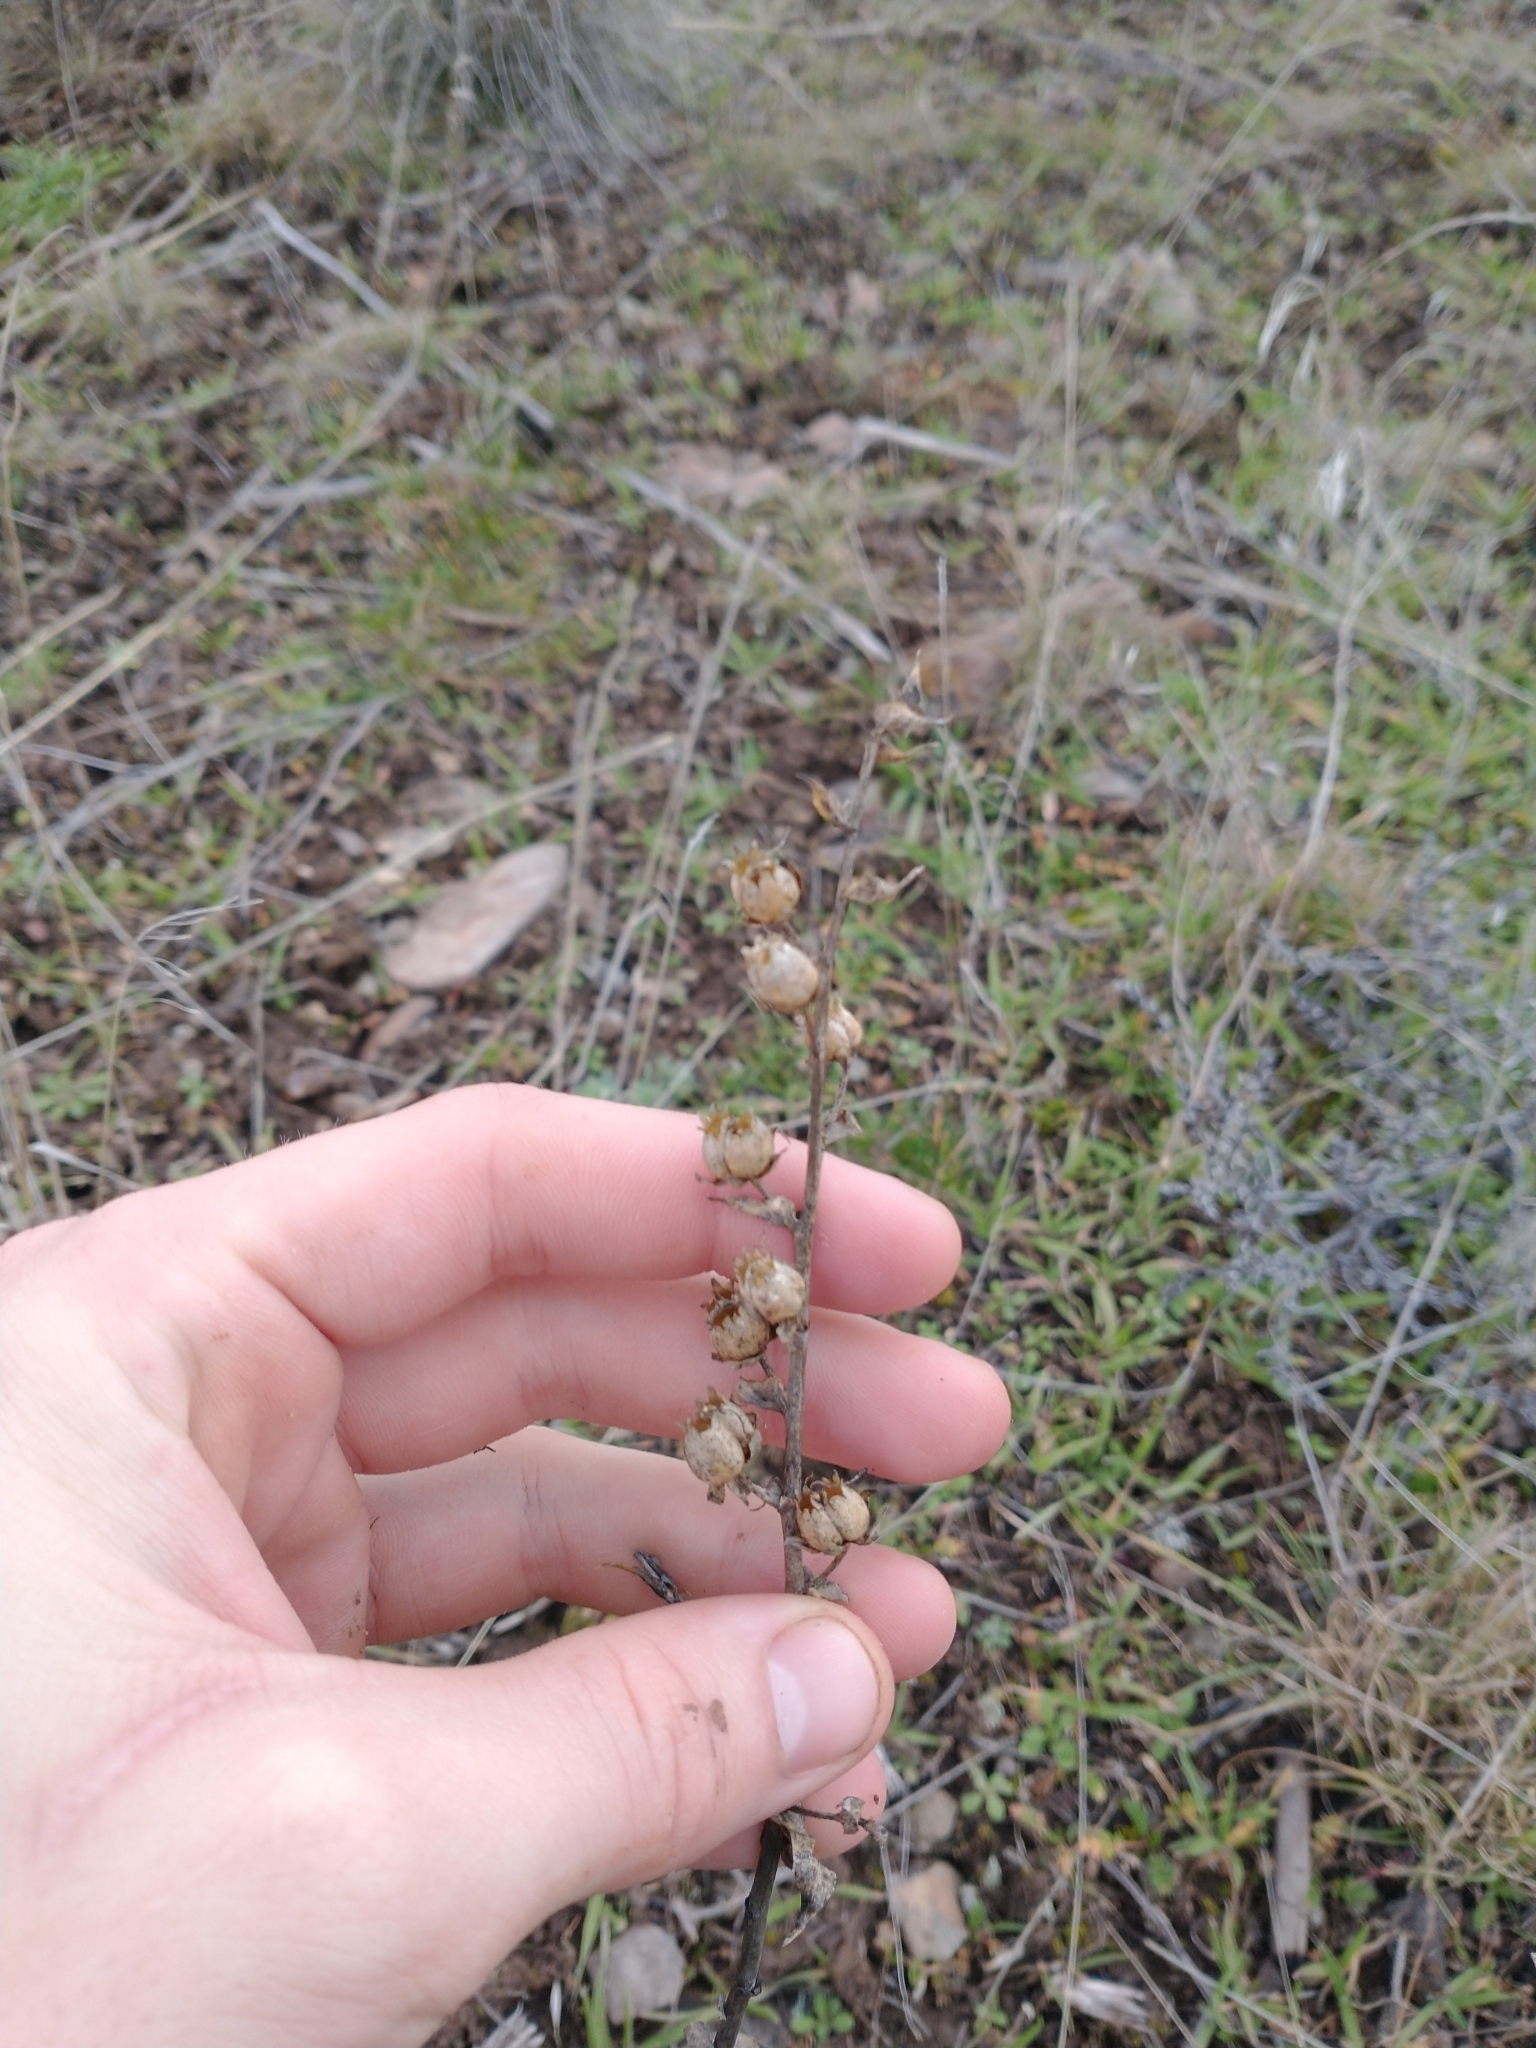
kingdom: Plantae
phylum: Tracheophyta
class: Magnoliopsida
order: Lamiales
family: Plantaginaceae
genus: Linaria
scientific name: Linaria dalmatica
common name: Dalmatian toadflax
